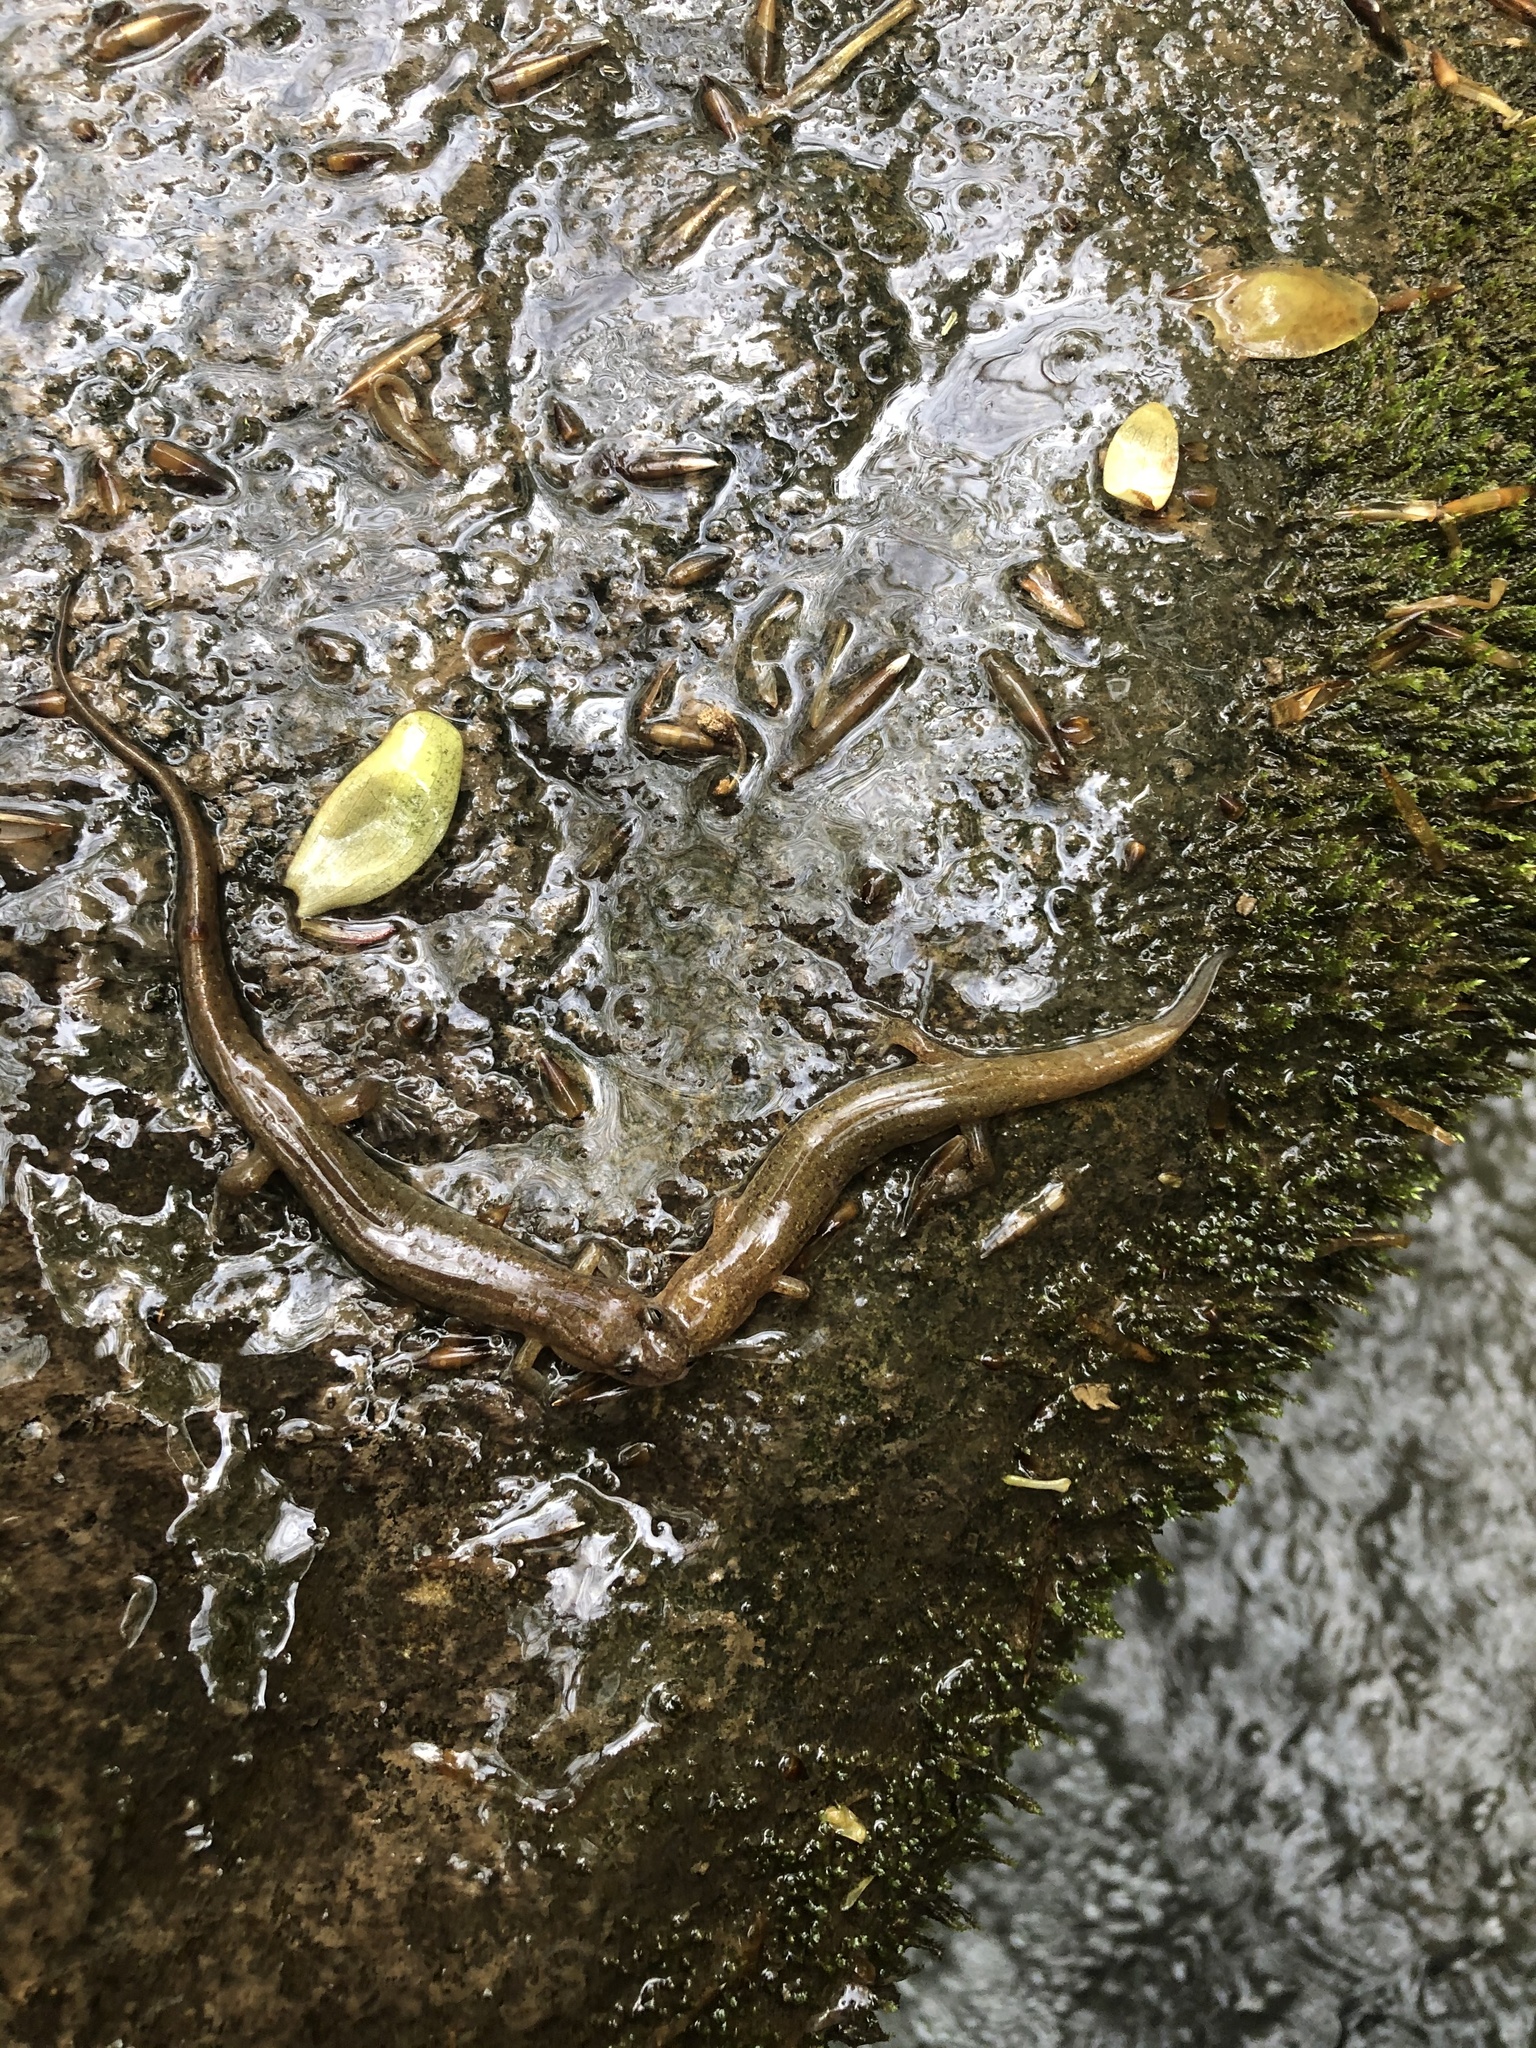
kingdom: Animalia
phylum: Chordata
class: Amphibia
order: Caudata
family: Plethodontidae
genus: Desmognathus
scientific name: Desmognathus fuscus
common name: Northern dusky salamander
